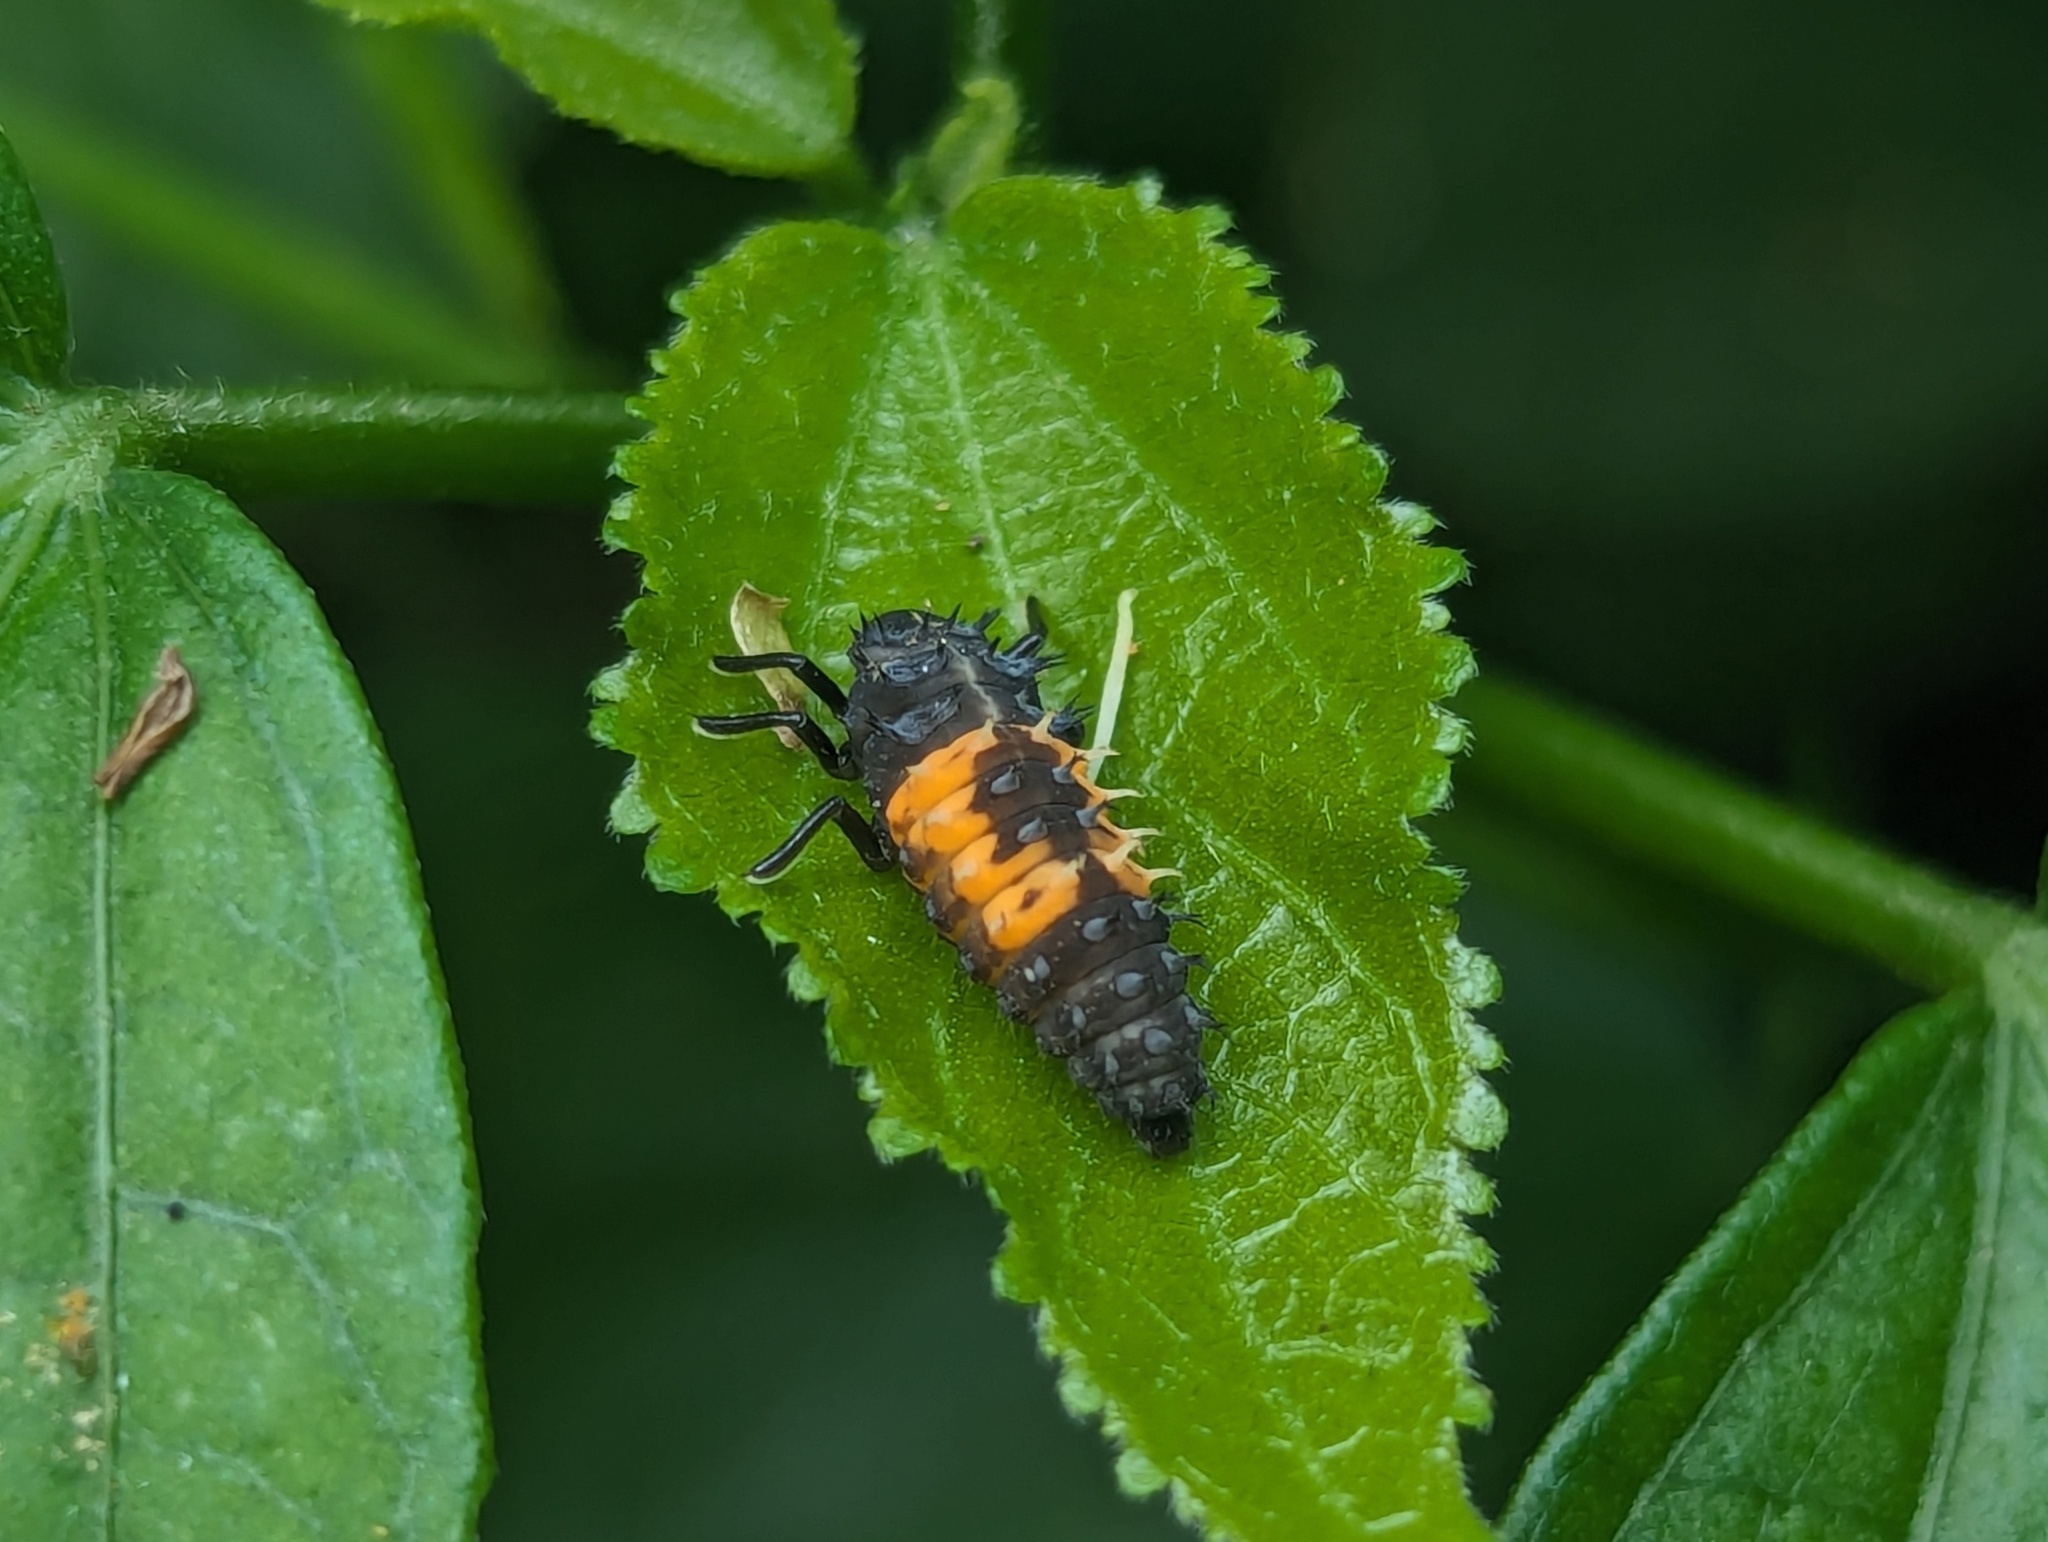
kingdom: Animalia
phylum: Arthropoda
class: Insecta
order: Coleoptera
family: Coccinellidae
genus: Harmonia
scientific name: Harmonia dimidiata
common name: Ladybird beetle
